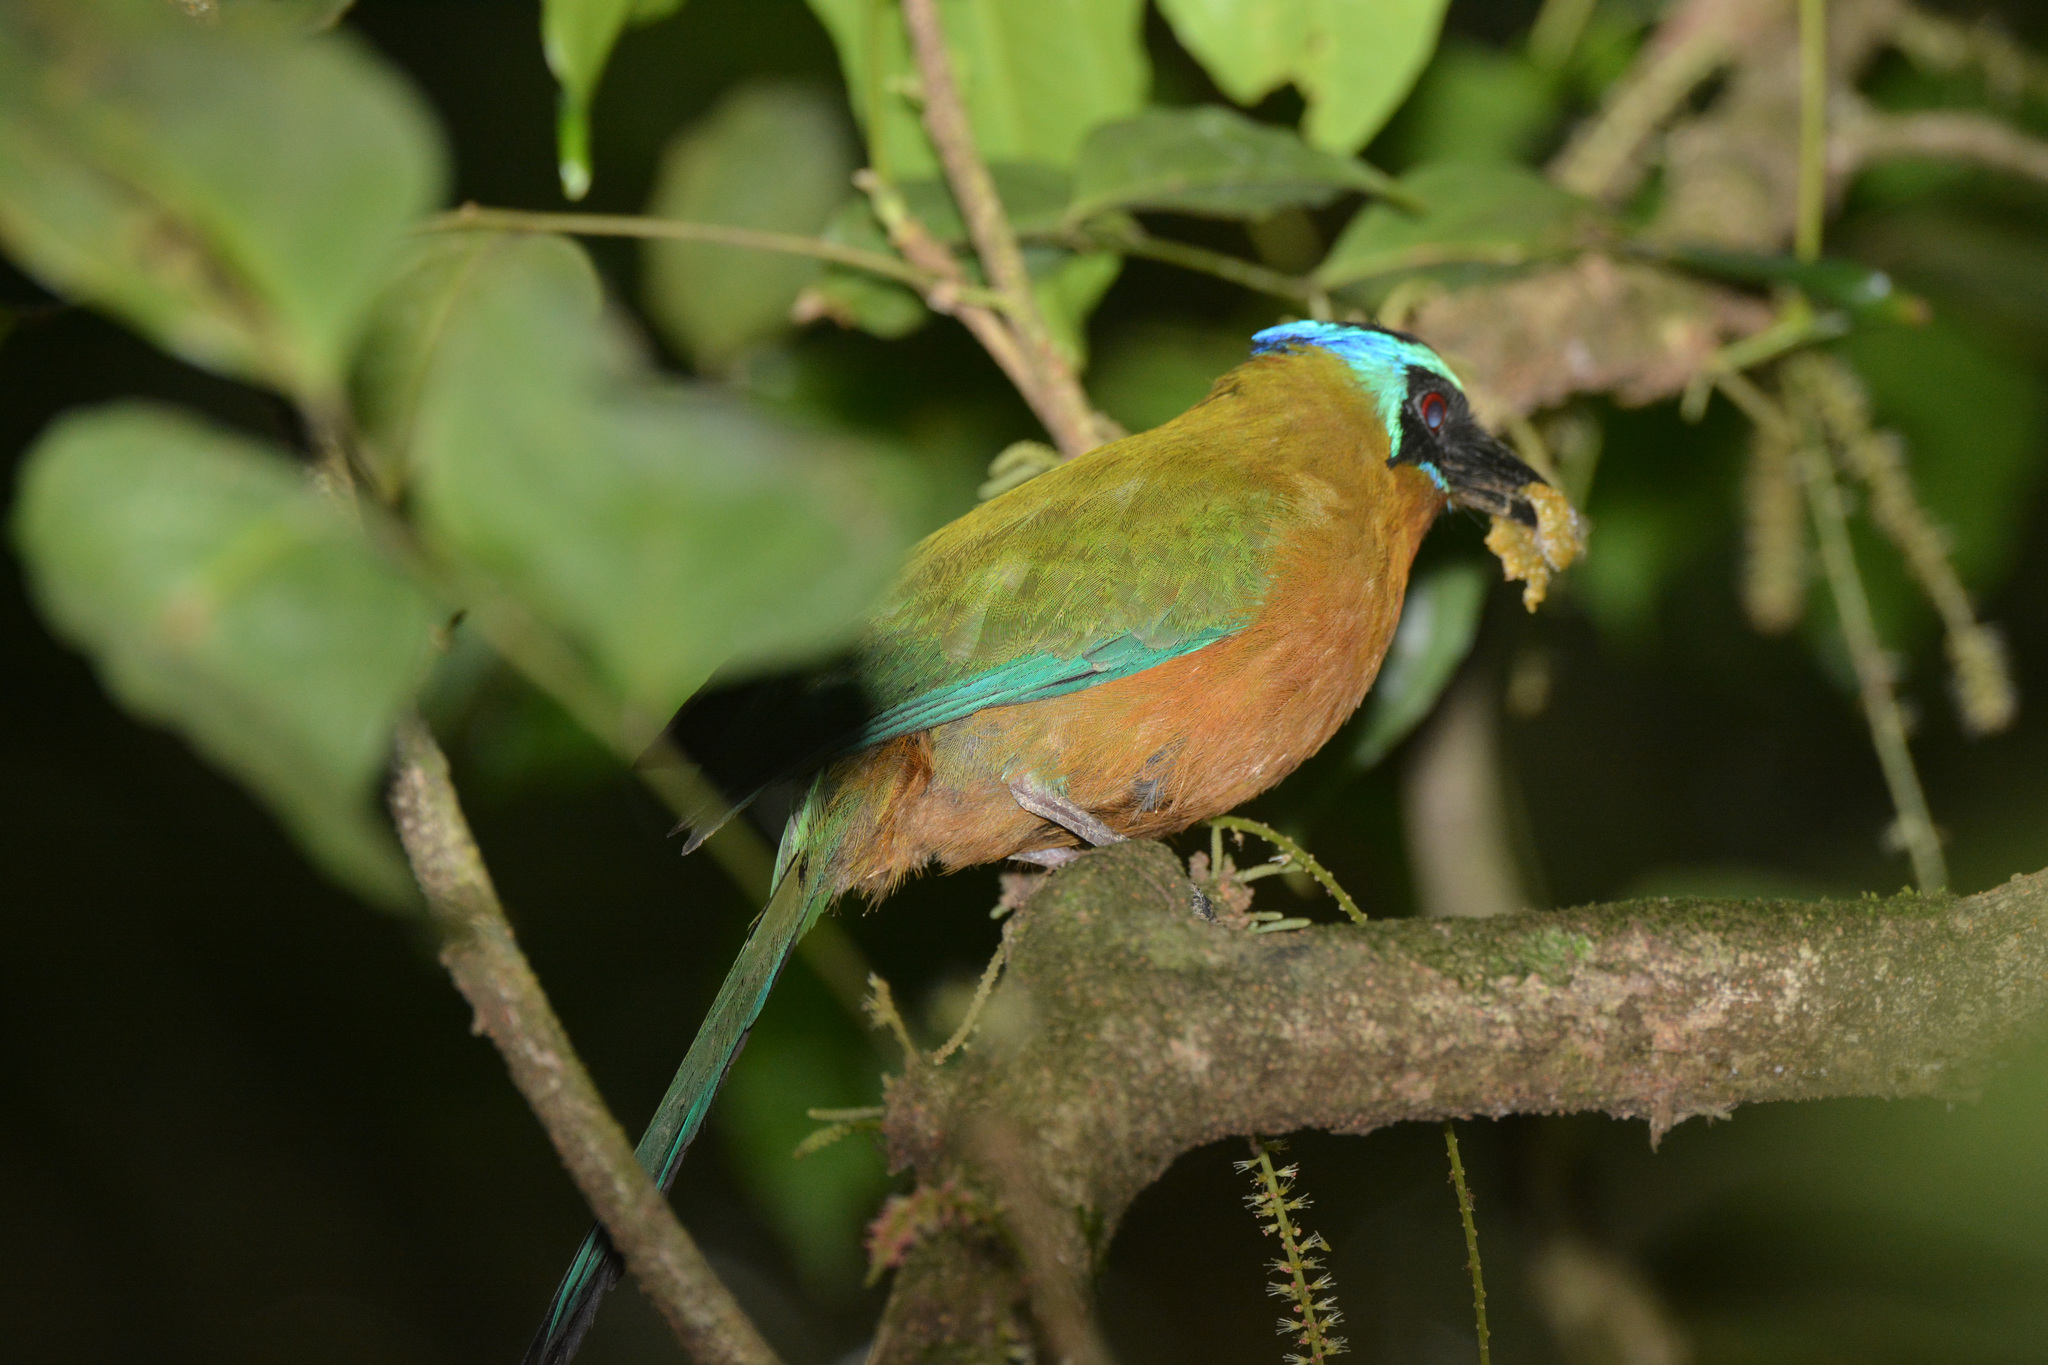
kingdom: Animalia
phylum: Chordata
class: Aves
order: Coraciiformes
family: Momotidae
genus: Momotus
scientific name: Momotus bahamensis
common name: Trinidad motmot
